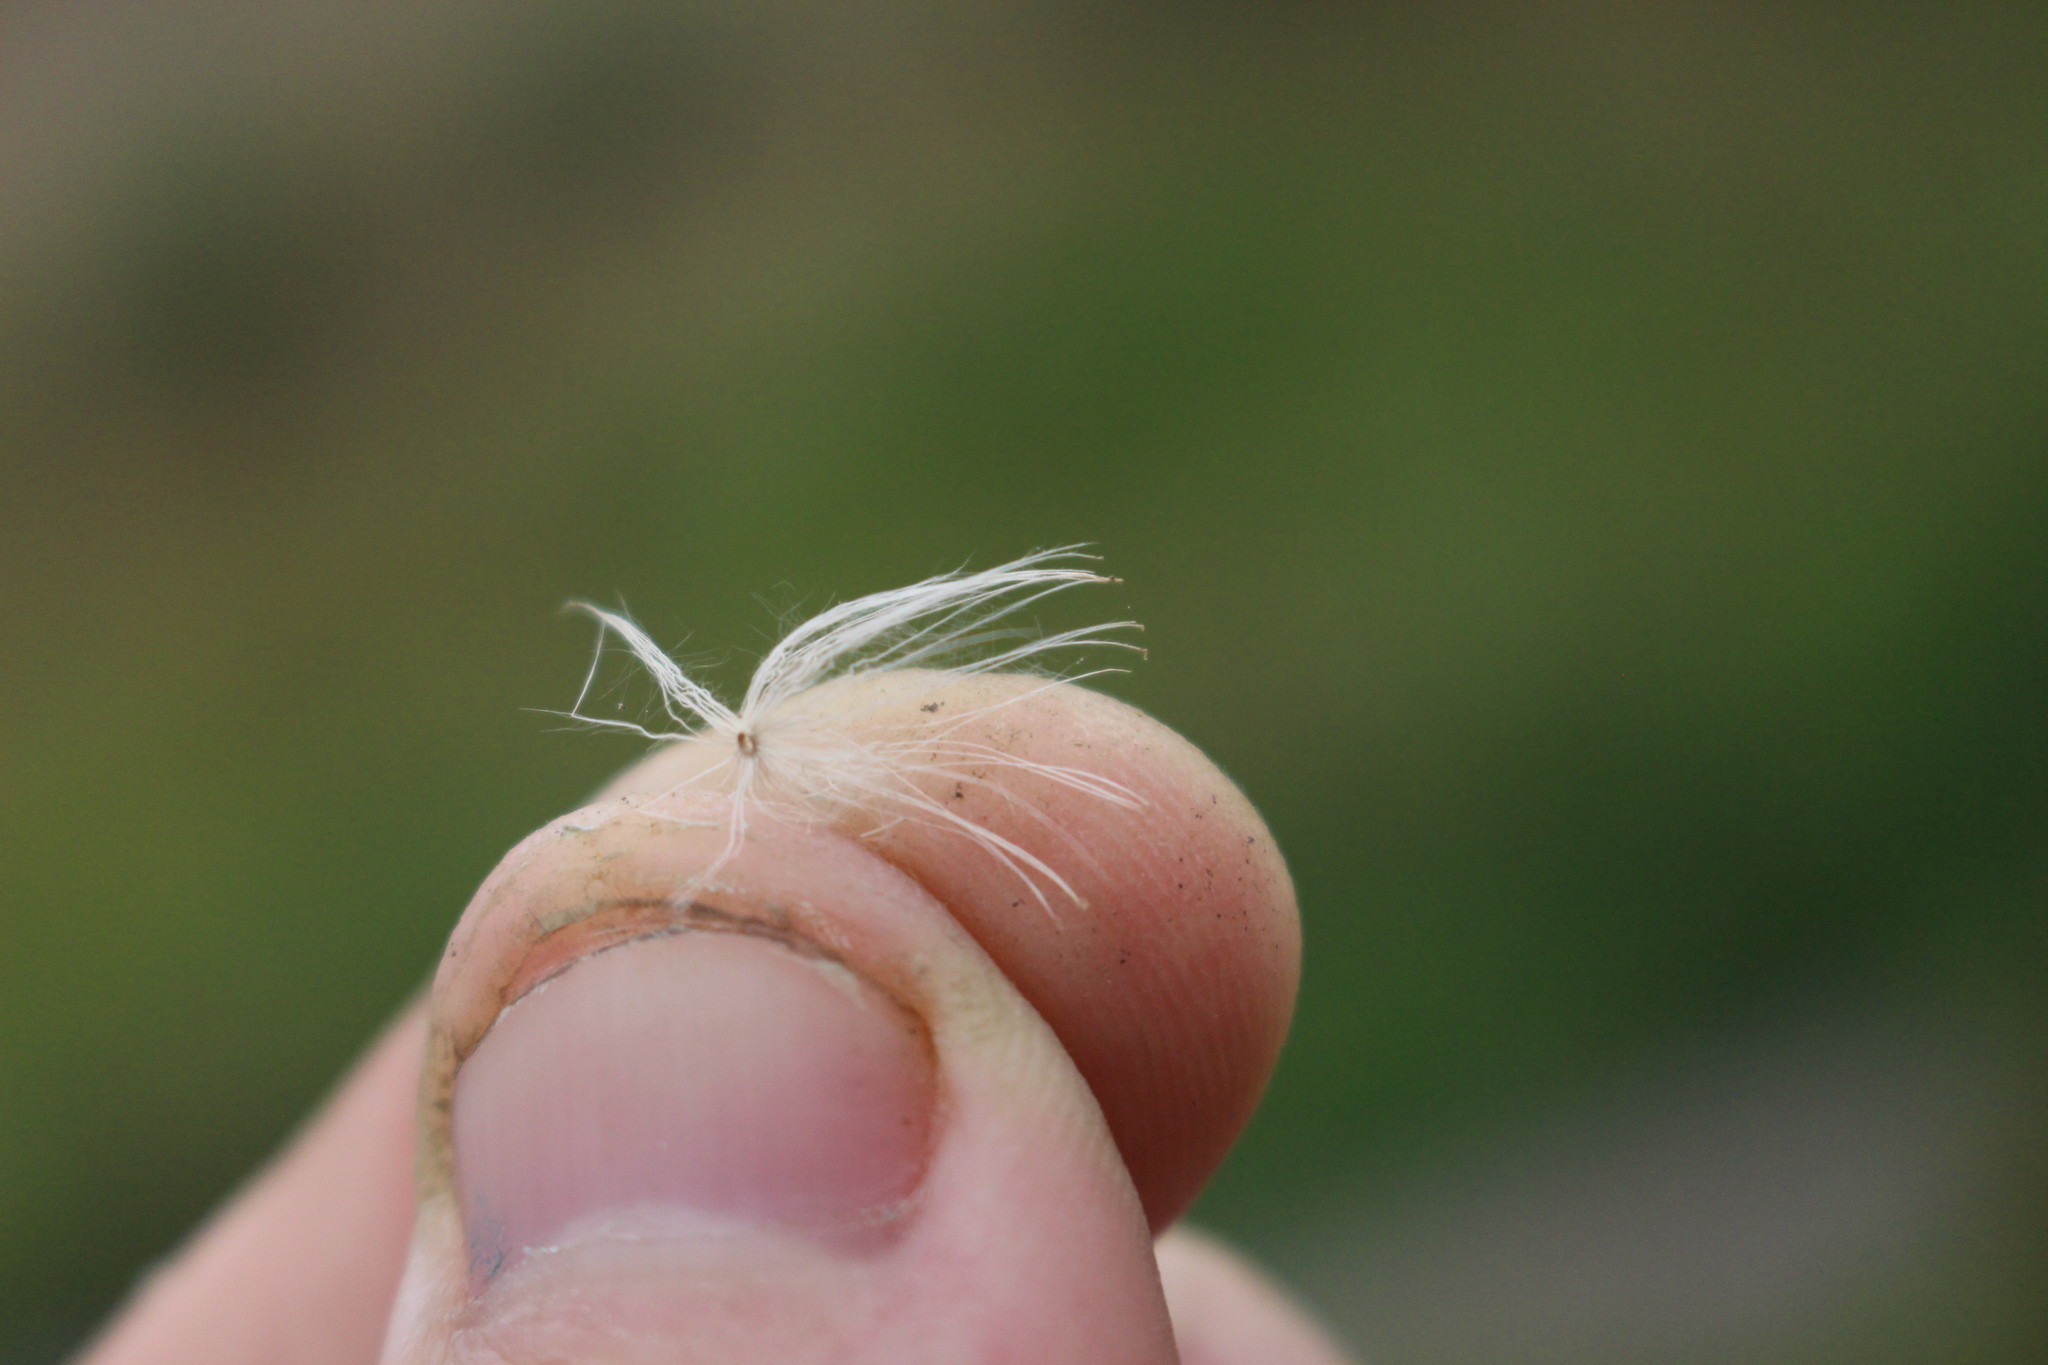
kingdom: Plantae
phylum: Tracheophyta
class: Magnoliopsida
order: Asterales
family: Asteraceae
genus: Cirsium
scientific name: Cirsium arvense
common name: Creeping thistle
